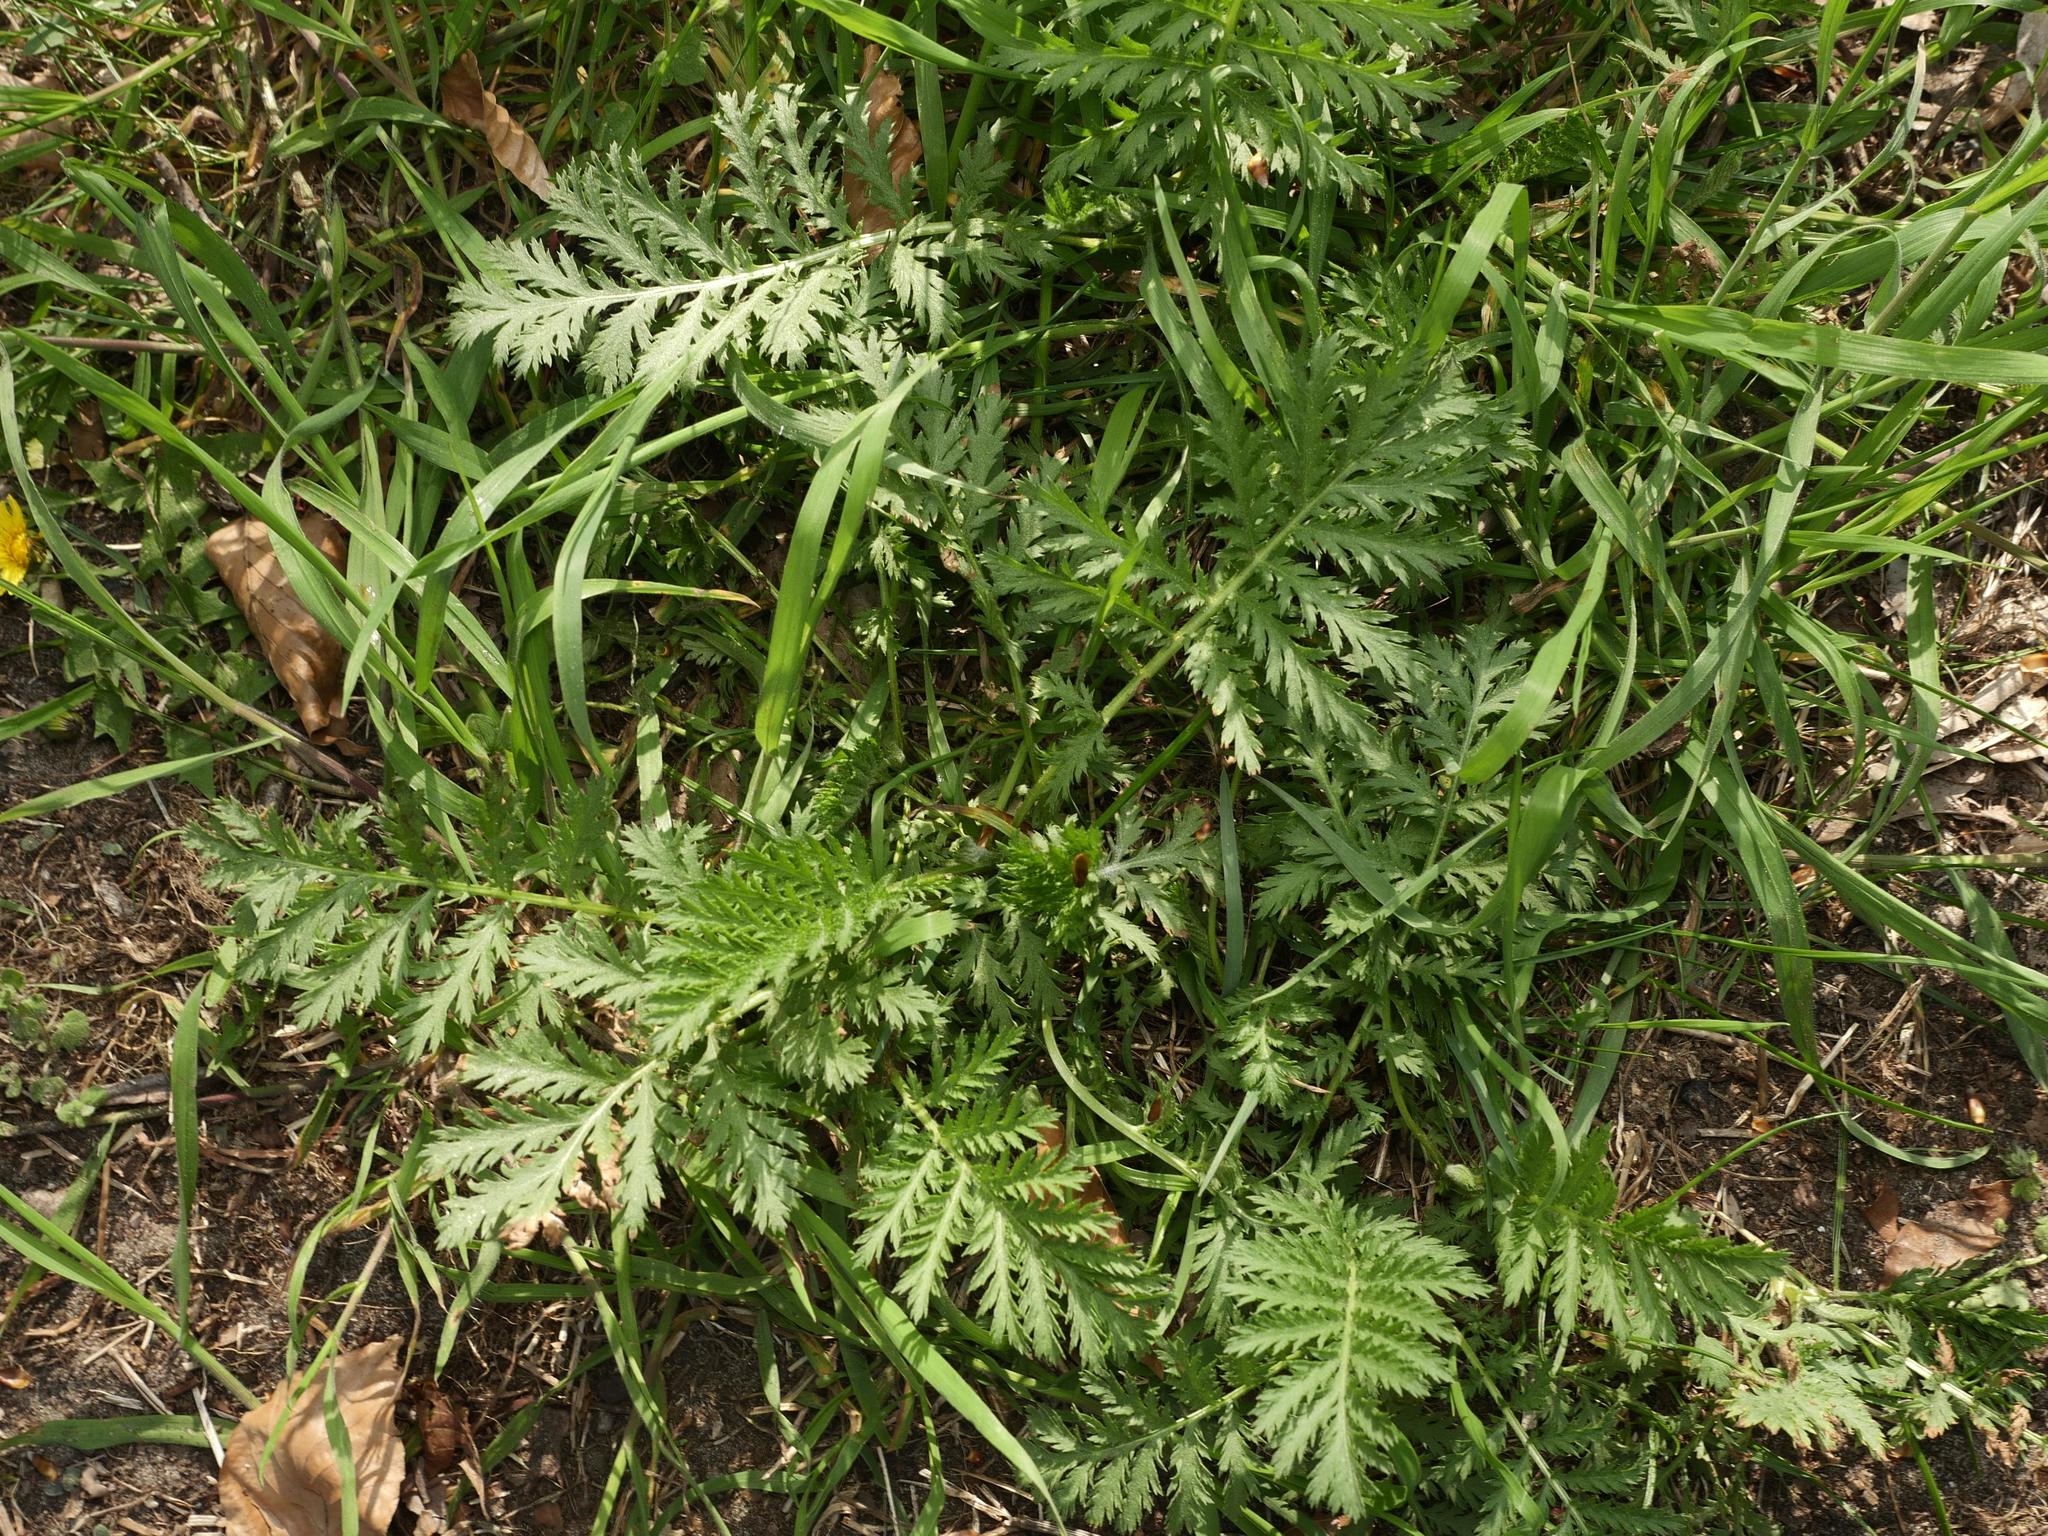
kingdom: Plantae
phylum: Tracheophyta
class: Magnoliopsida
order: Asterales
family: Asteraceae
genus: Tanacetum
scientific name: Tanacetum vulgare
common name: Common tansy
